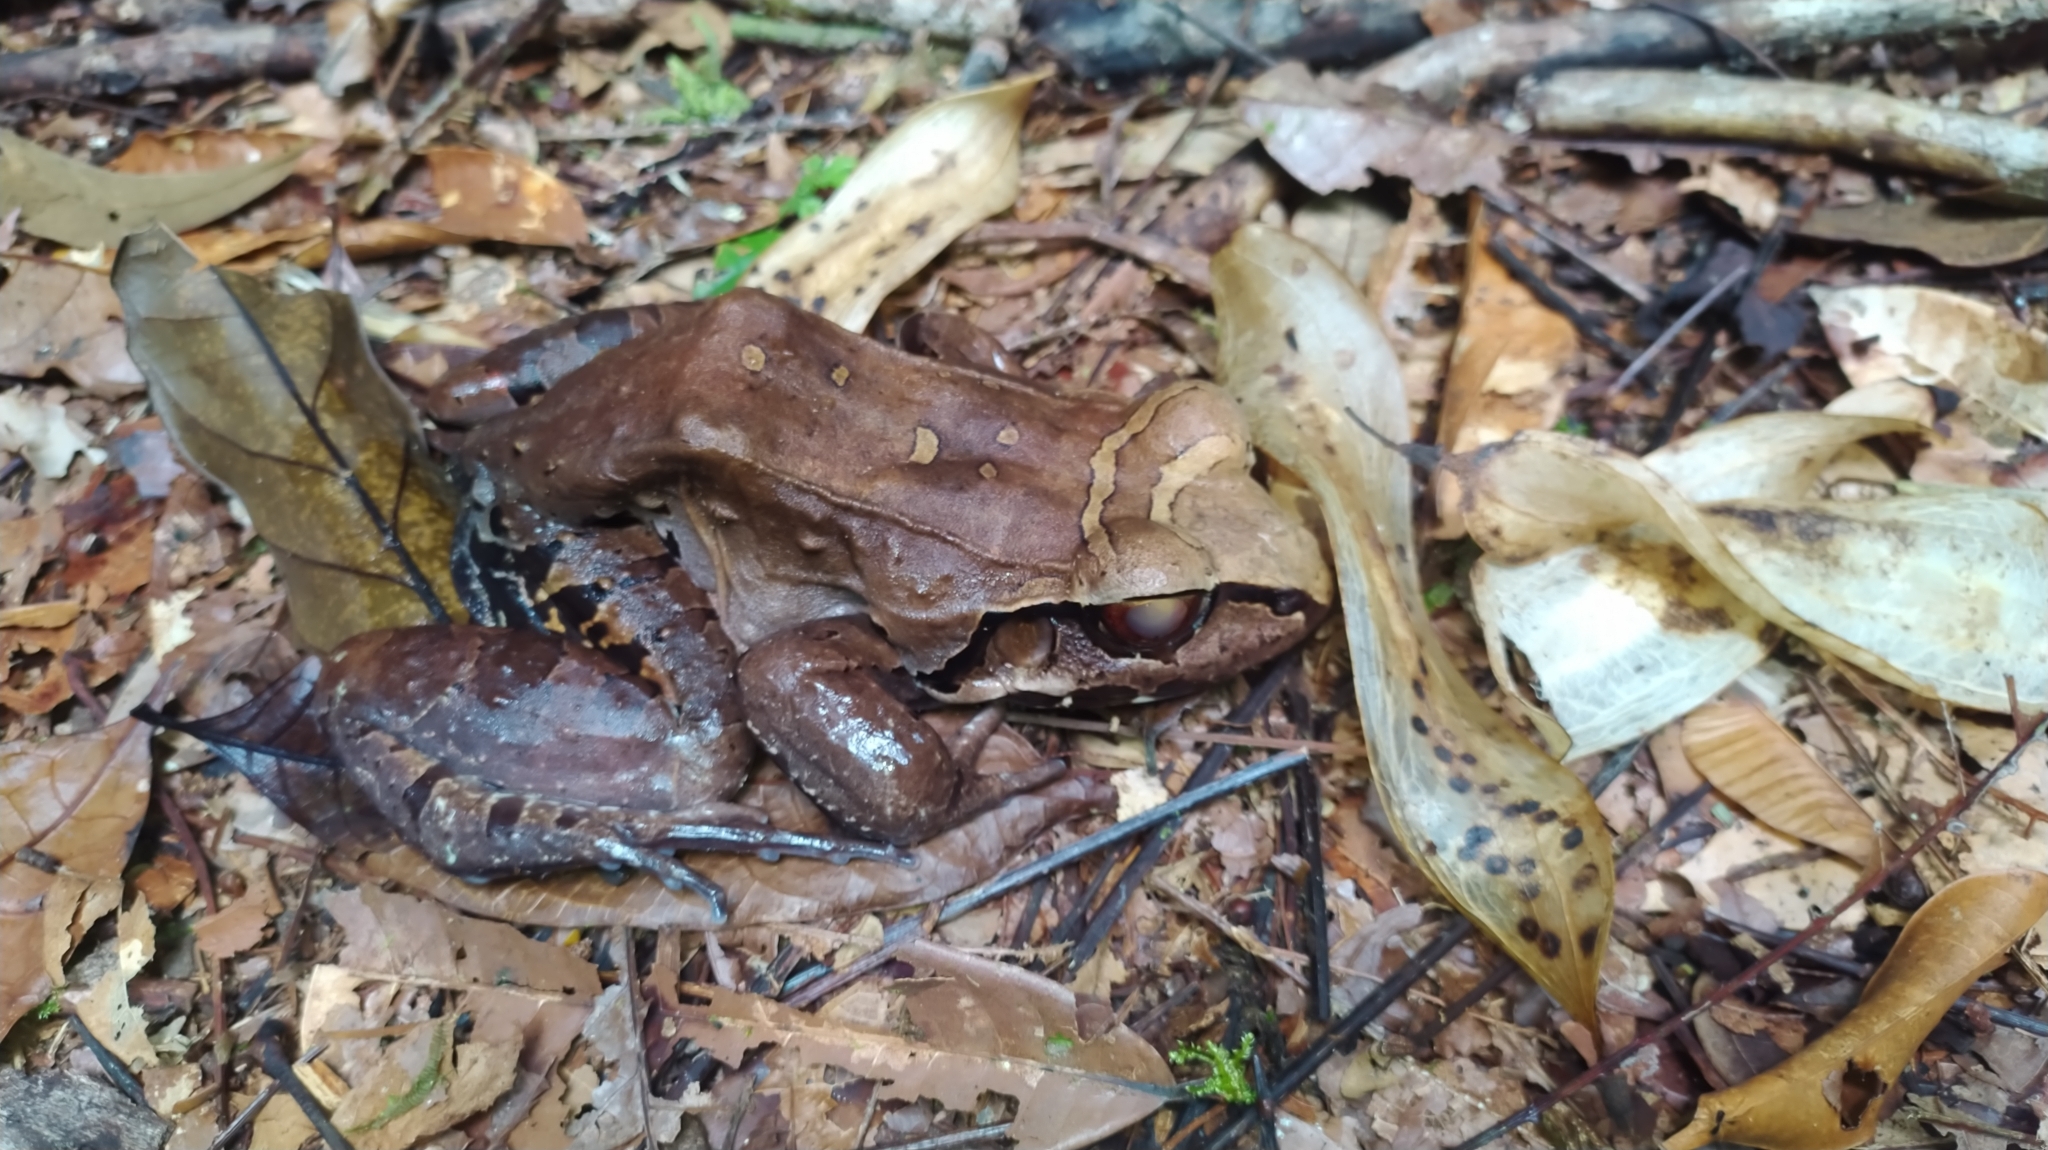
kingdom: Animalia
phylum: Chordata
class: Amphibia
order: Anura
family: Leptodactylidae
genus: Leptodactylus
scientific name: Leptodactylus knudseni
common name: Knudsen's frog
